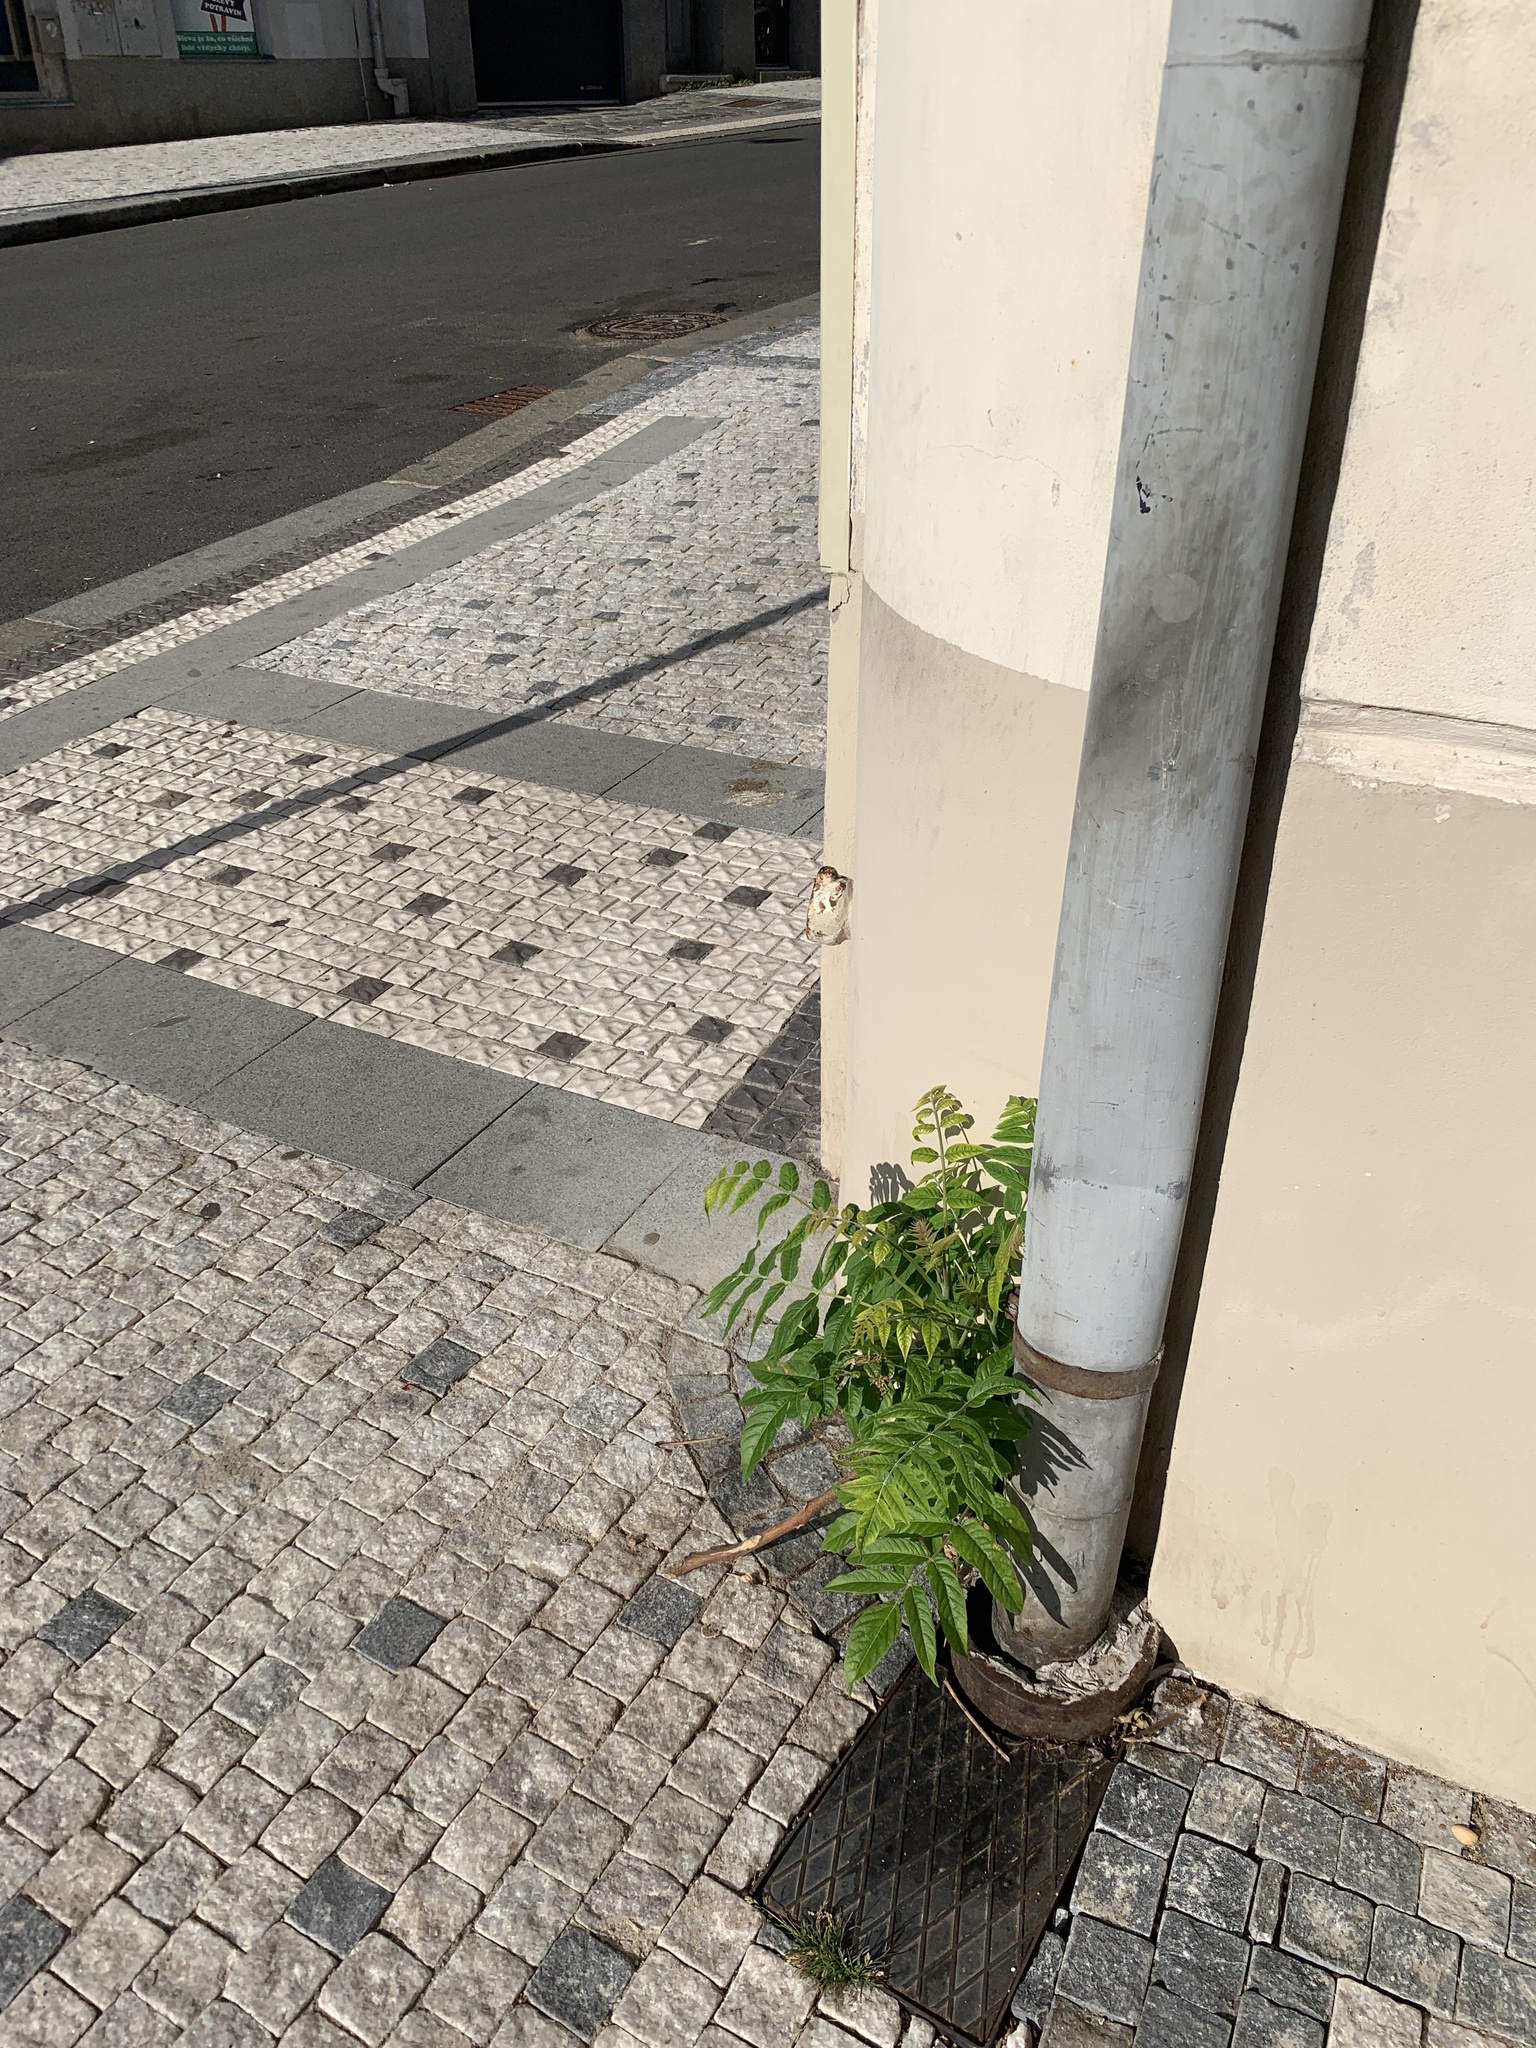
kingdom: Plantae
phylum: Tracheophyta
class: Magnoliopsida
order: Sapindales
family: Simaroubaceae
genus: Ailanthus
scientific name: Ailanthus altissima
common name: Tree-of-heaven
